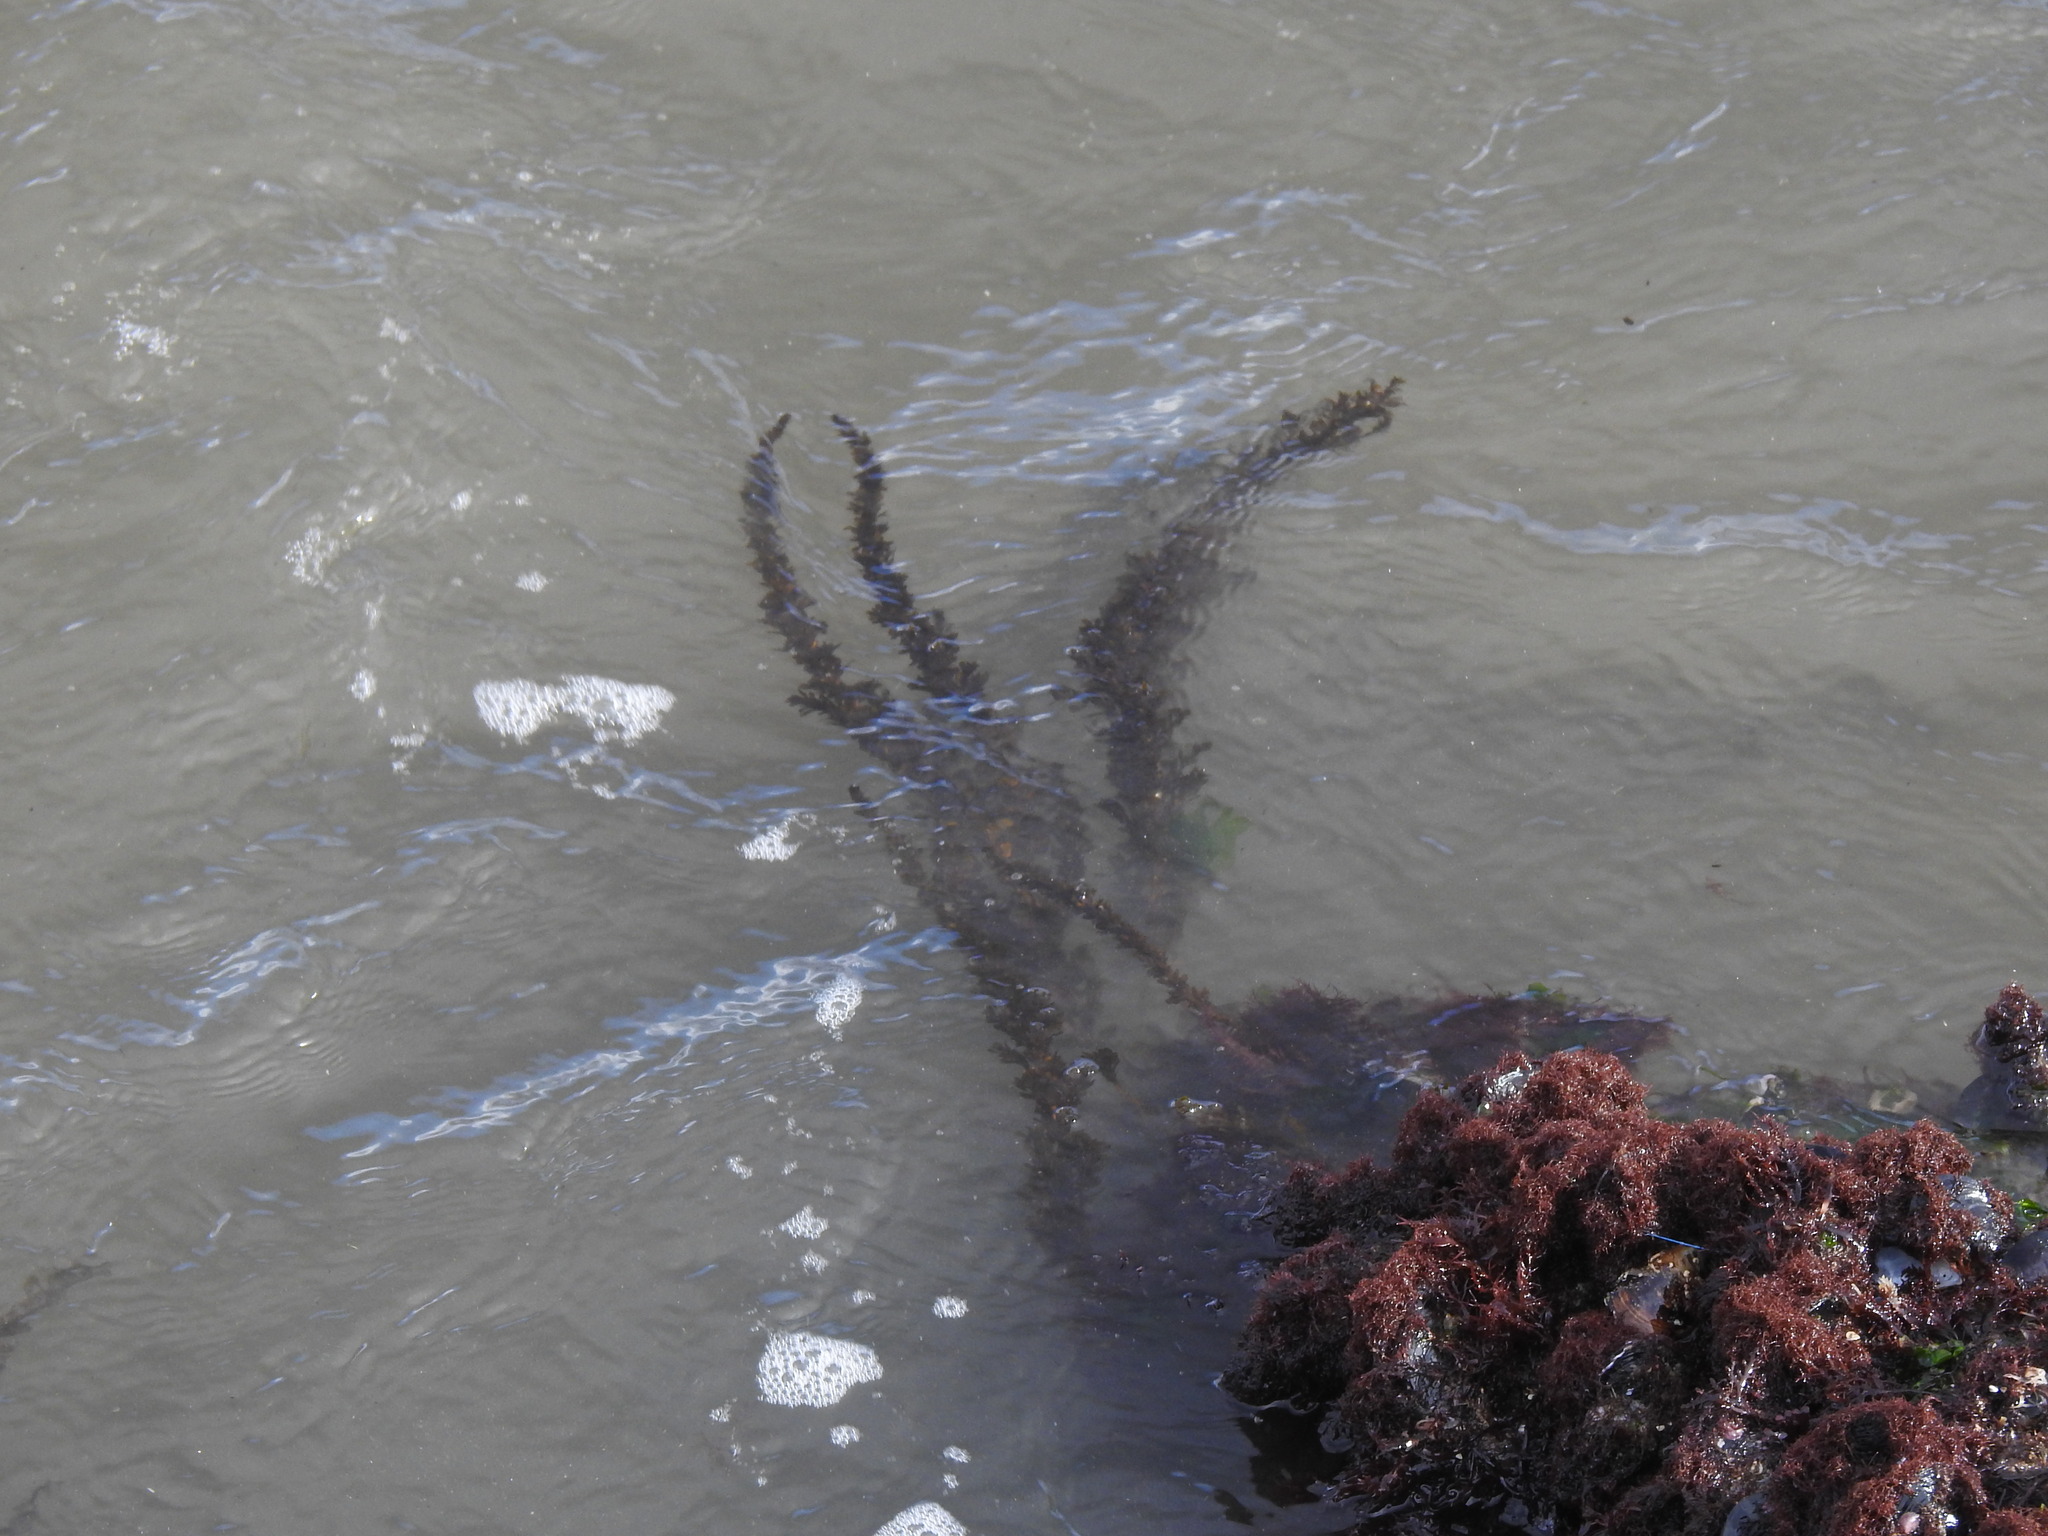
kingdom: Chromista
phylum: Ochrophyta
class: Phaeophyceae
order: Fucales
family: Sargassaceae
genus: Sargassum
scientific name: Sargassum muticum
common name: Japweed
